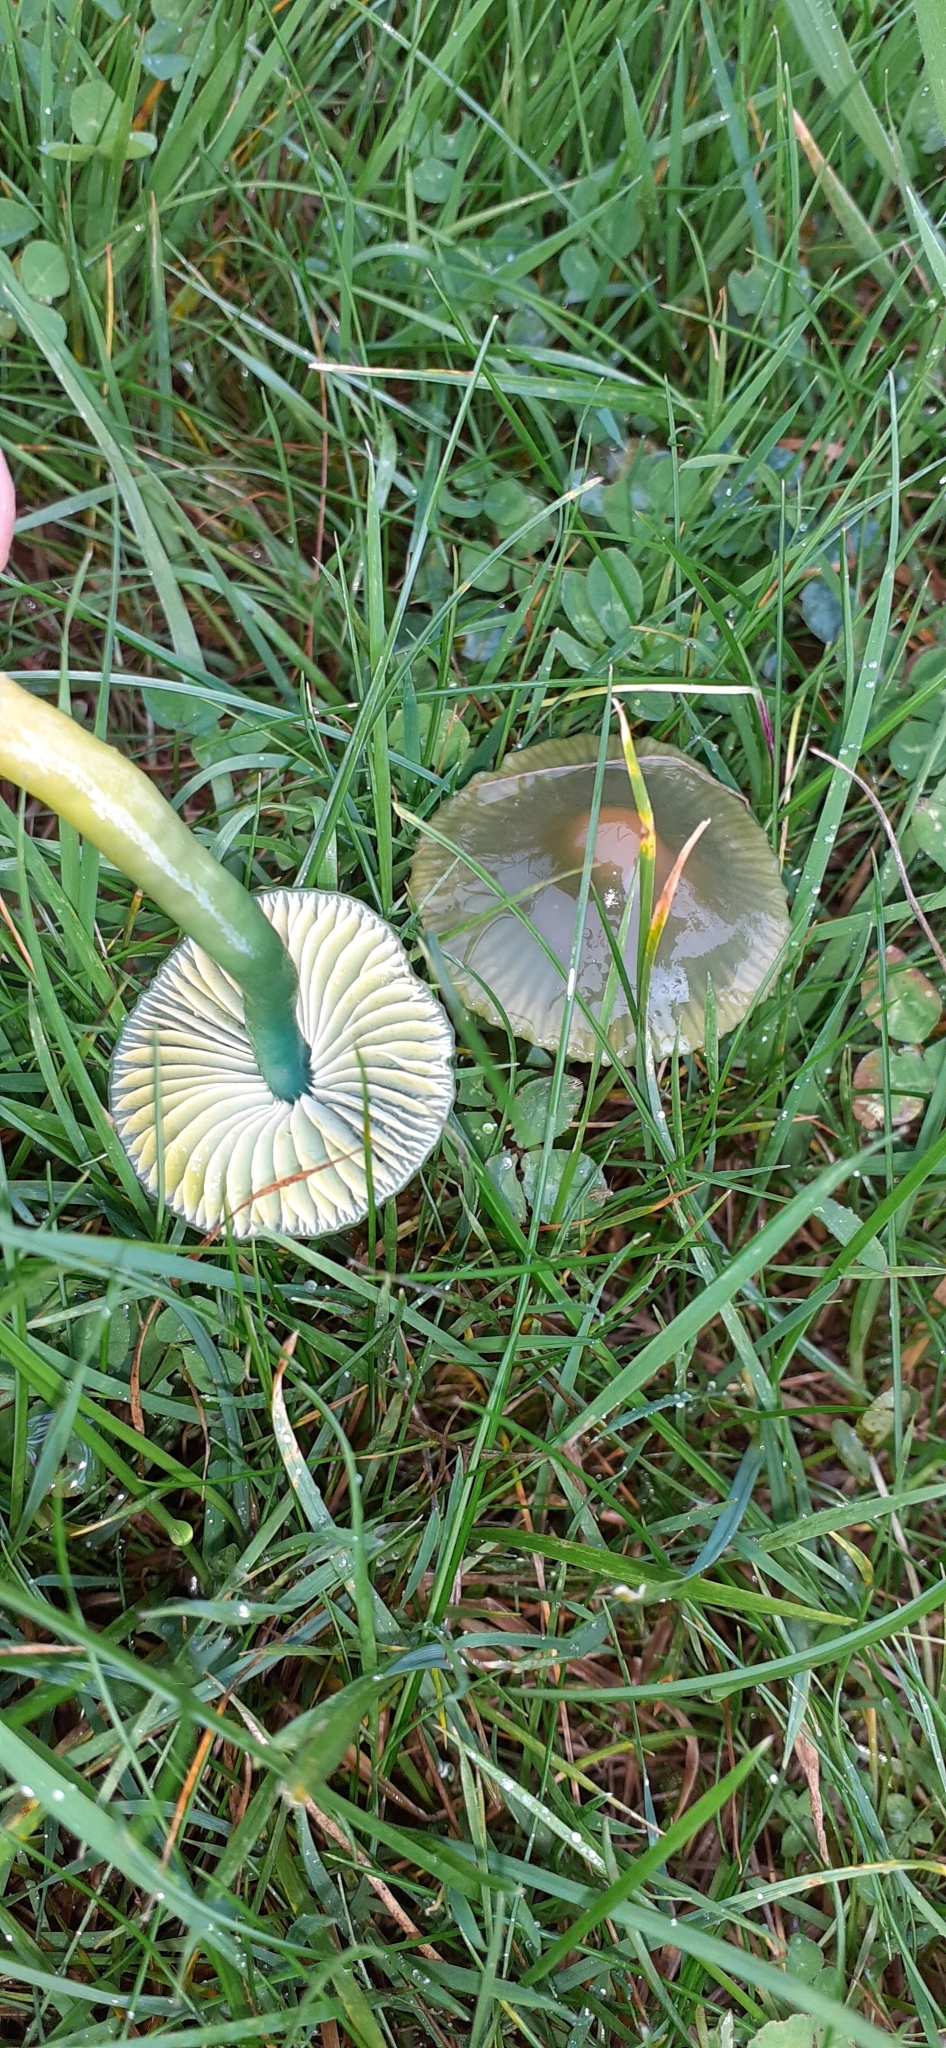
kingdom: Fungi
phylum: Basidiomycota
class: Agaricomycetes
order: Agaricales
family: Hygrophoraceae
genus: Gliophorus
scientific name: Gliophorus psittacinus
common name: Parrot wax-cap
